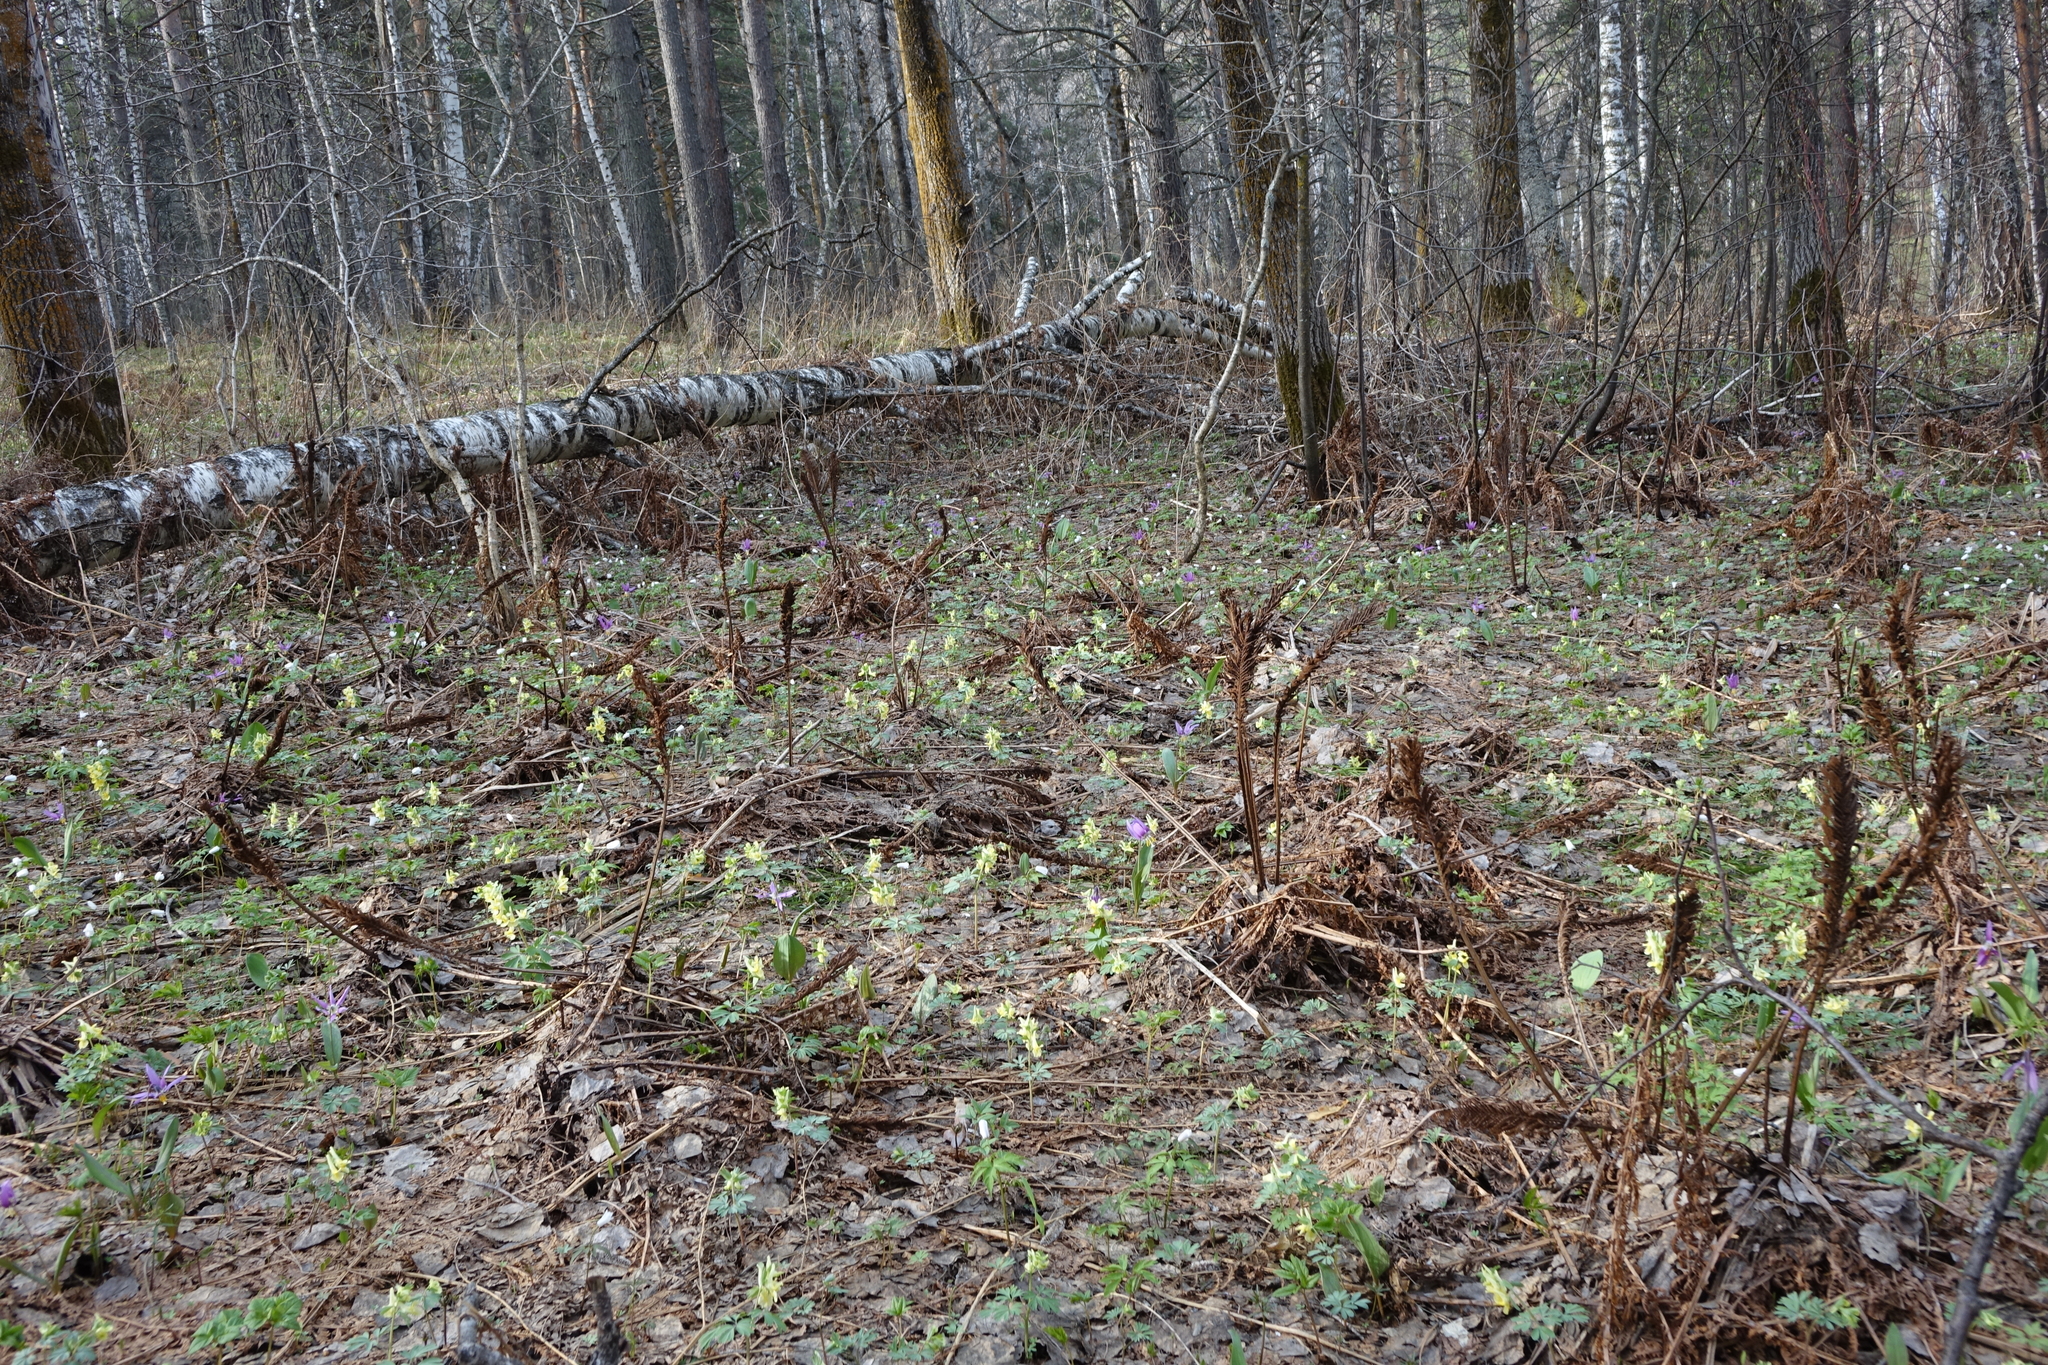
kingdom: Plantae
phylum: Tracheophyta
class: Polypodiopsida
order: Polypodiales
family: Onocleaceae
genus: Matteuccia
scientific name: Matteuccia struthiopteris
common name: Ostrich fern
